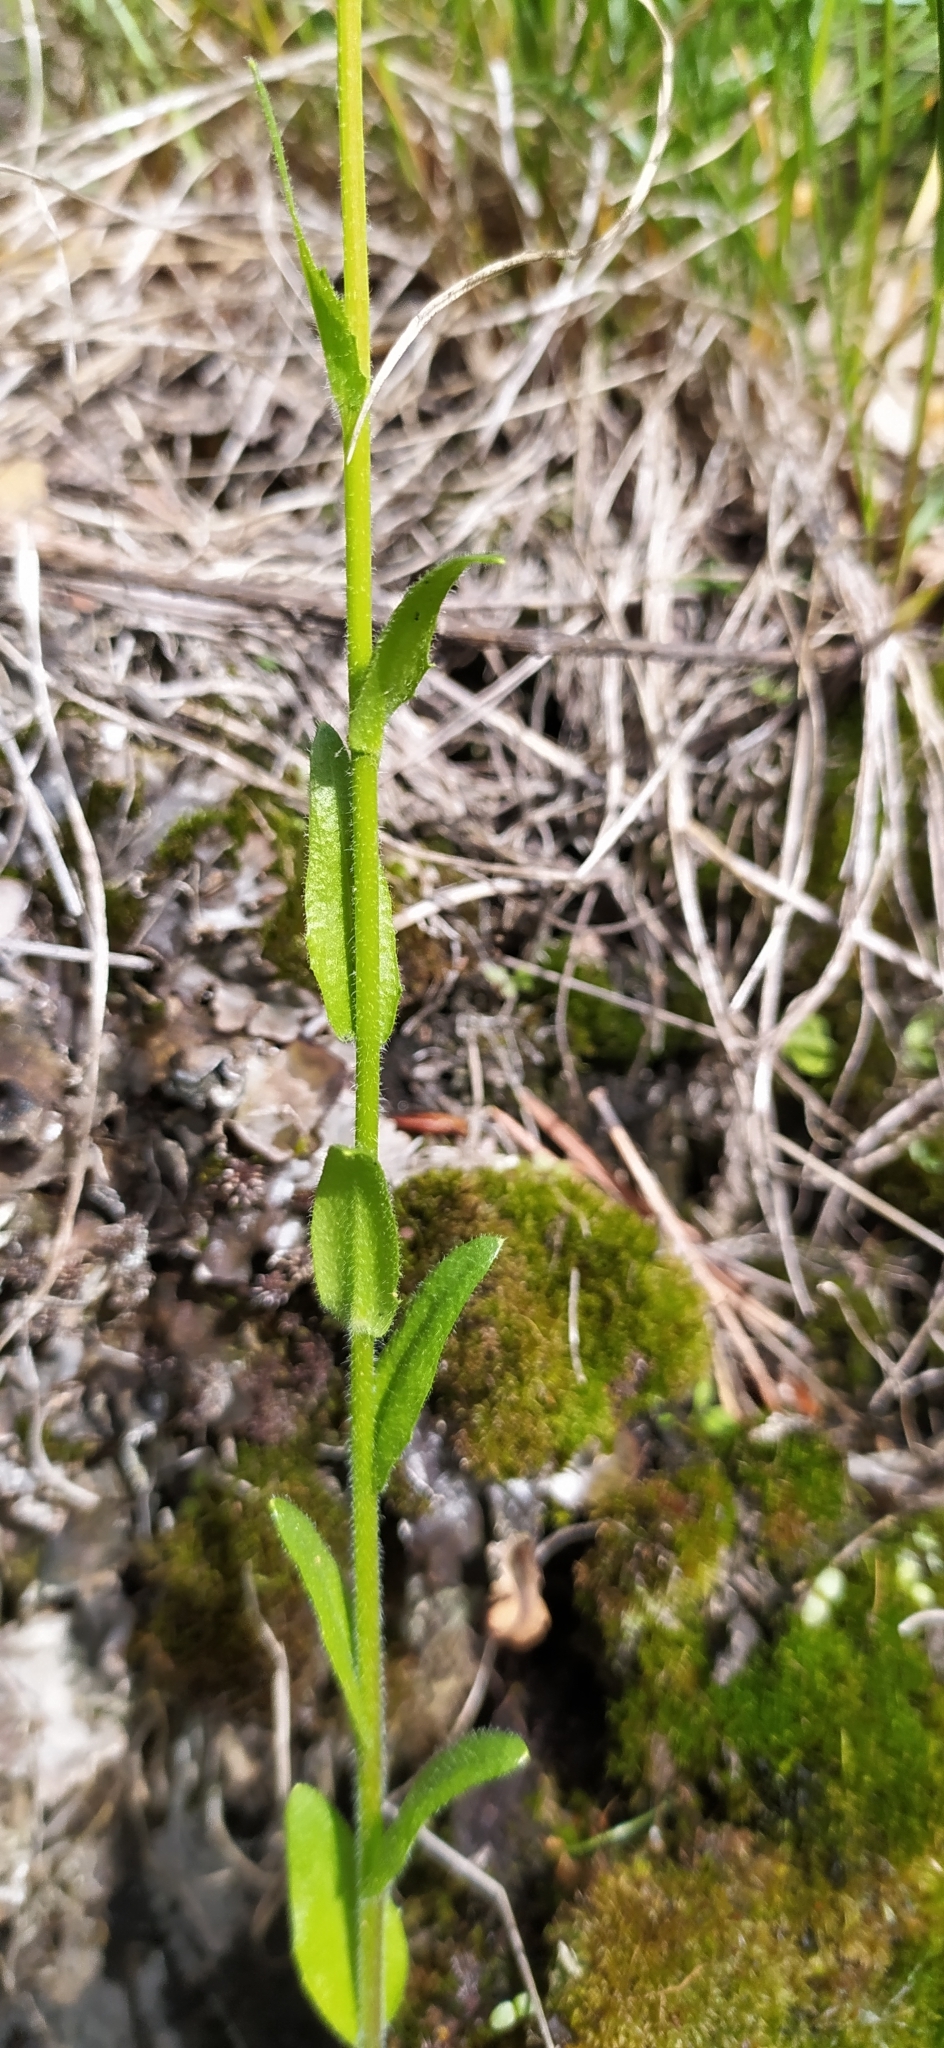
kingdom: Plantae
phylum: Tracheophyta
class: Magnoliopsida
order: Brassicales
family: Brassicaceae
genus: Arabis
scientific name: Arabis sagittata
